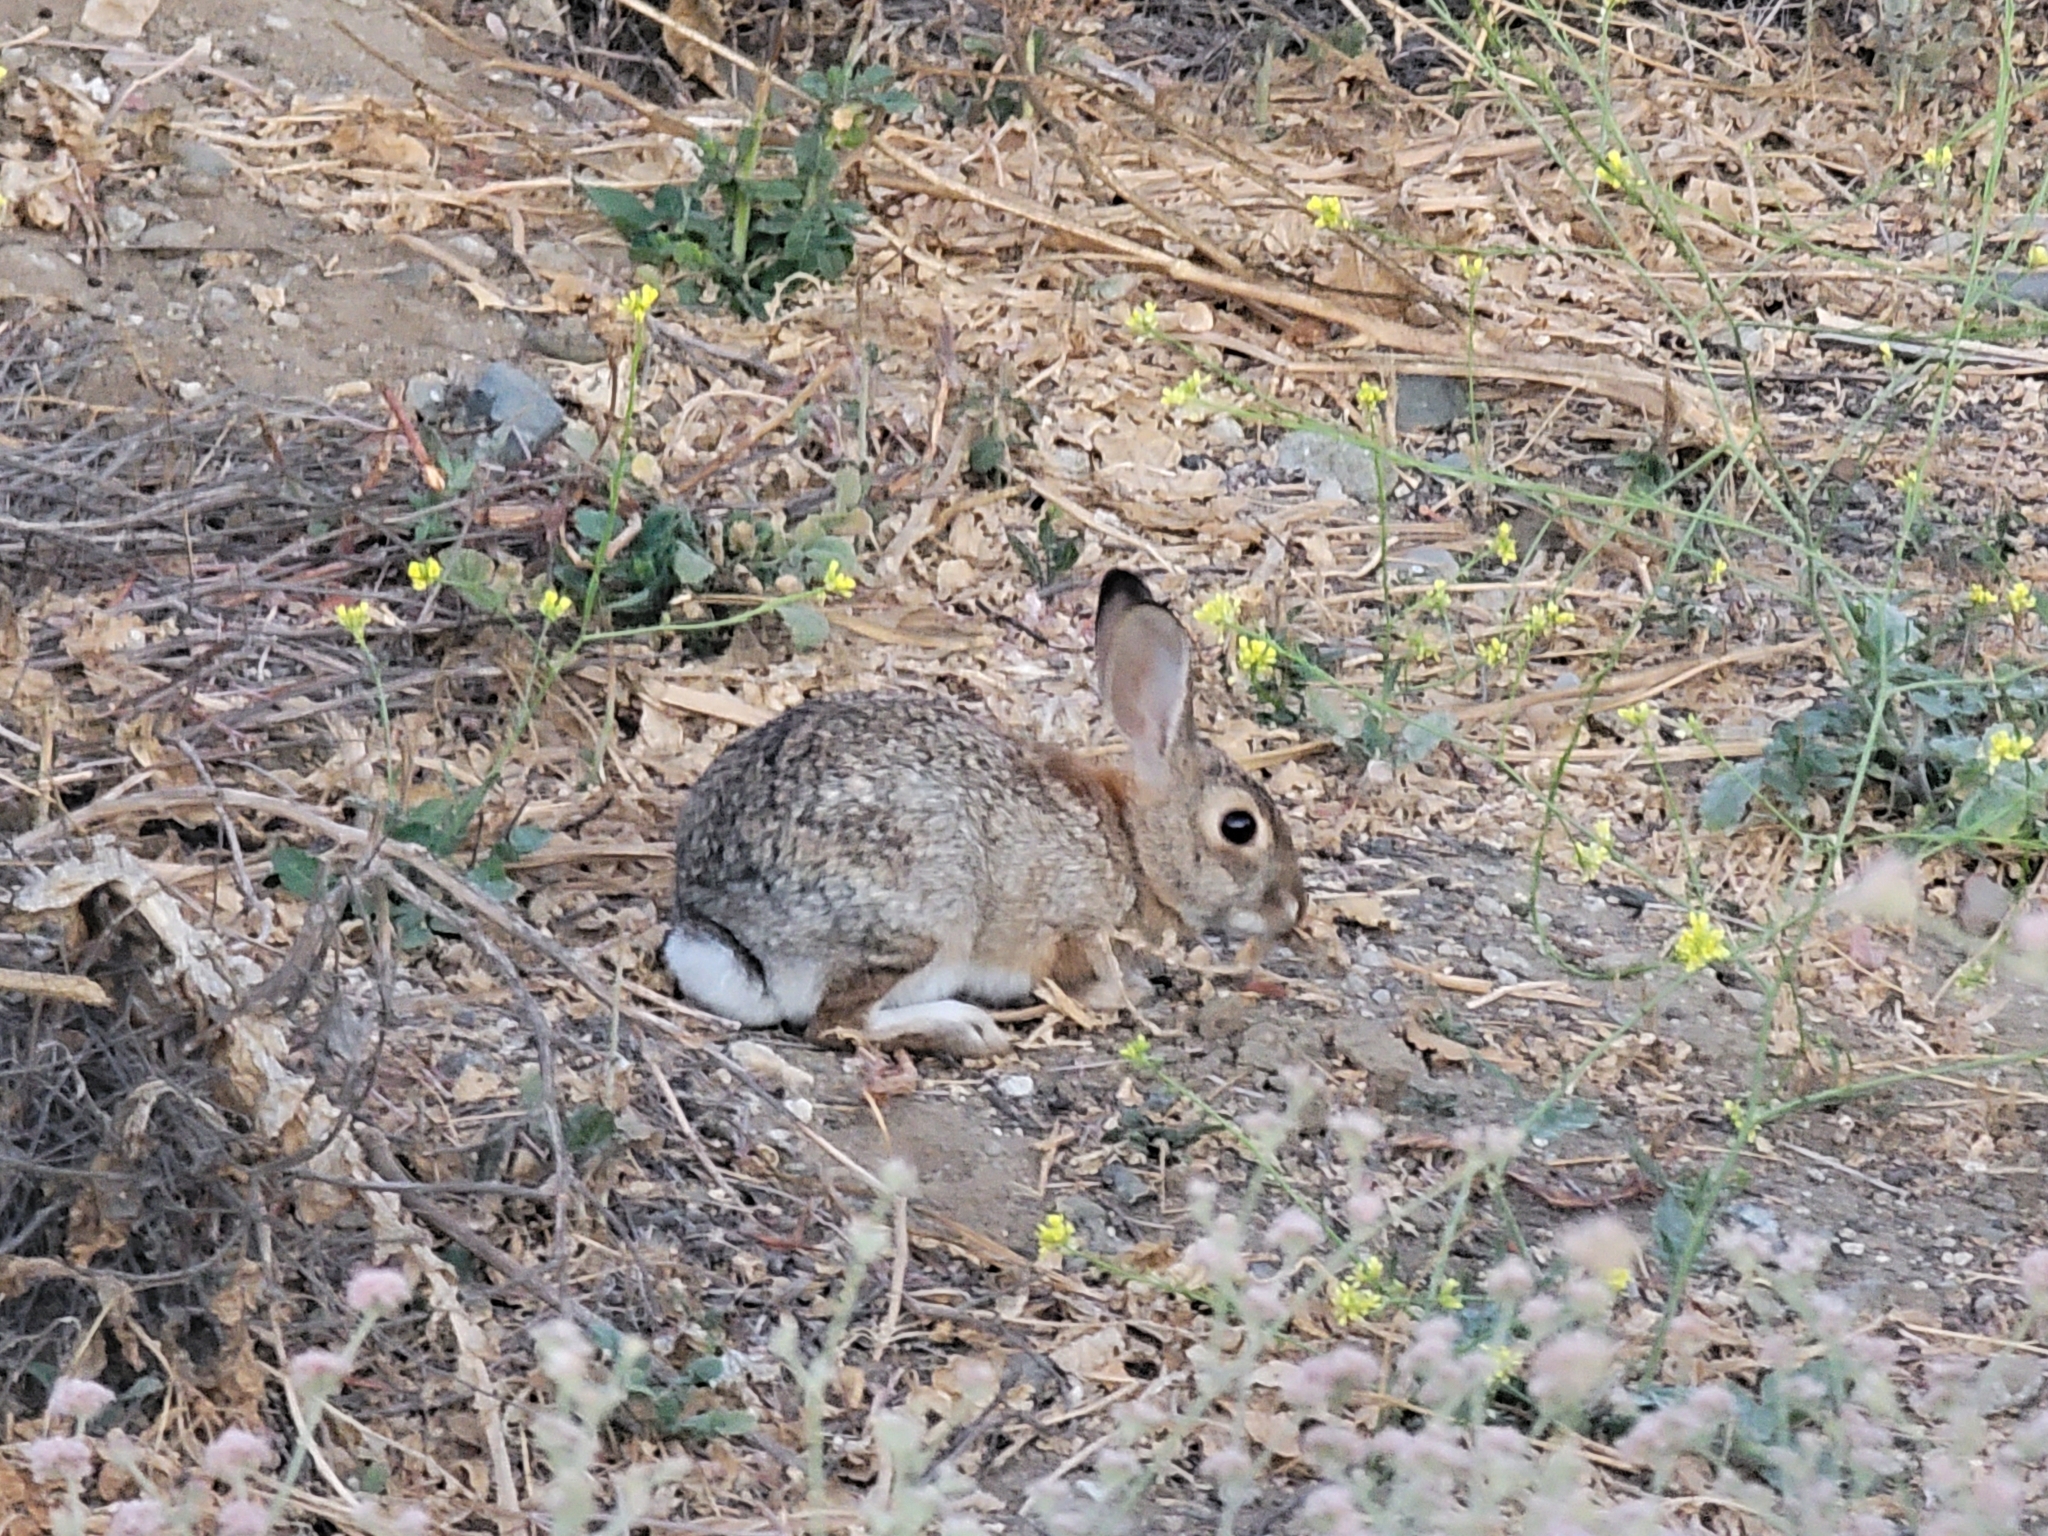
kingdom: Animalia
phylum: Chordata
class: Mammalia
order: Lagomorpha
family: Leporidae
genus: Sylvilagus
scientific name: Sylvilagus audubonii
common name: Desert cottontail
